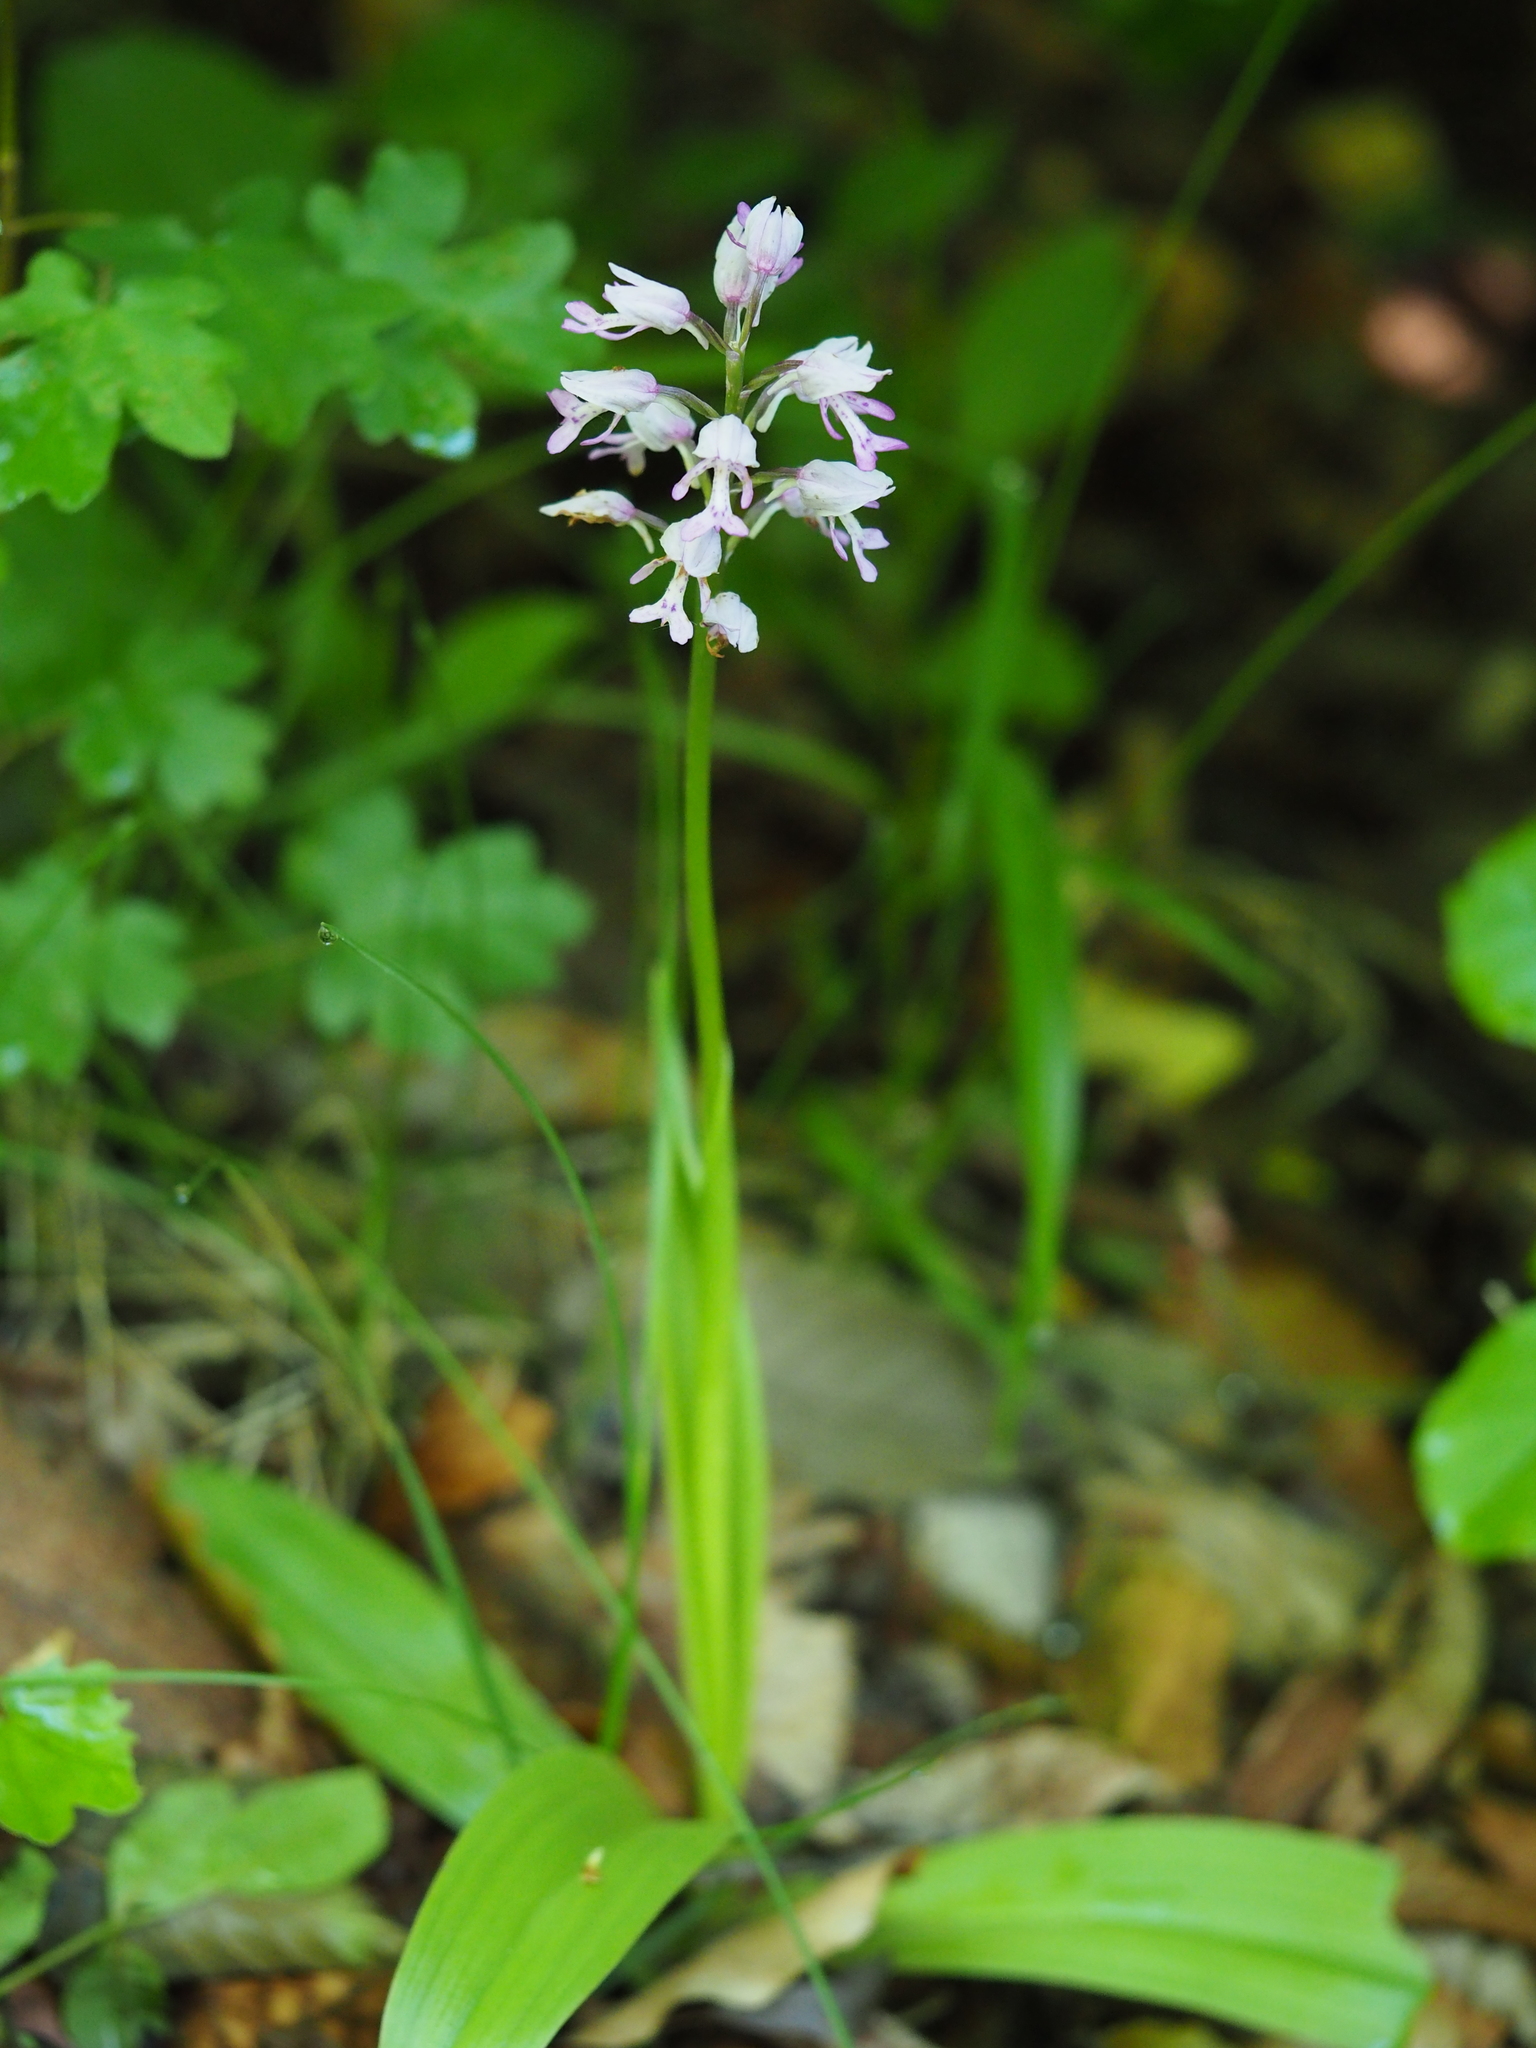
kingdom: Plantae
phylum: Tracheophyta
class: Liliopsida
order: Asparagales
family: Orchidaceae
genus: Orchis
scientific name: Orchis militaris
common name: Military orchid
